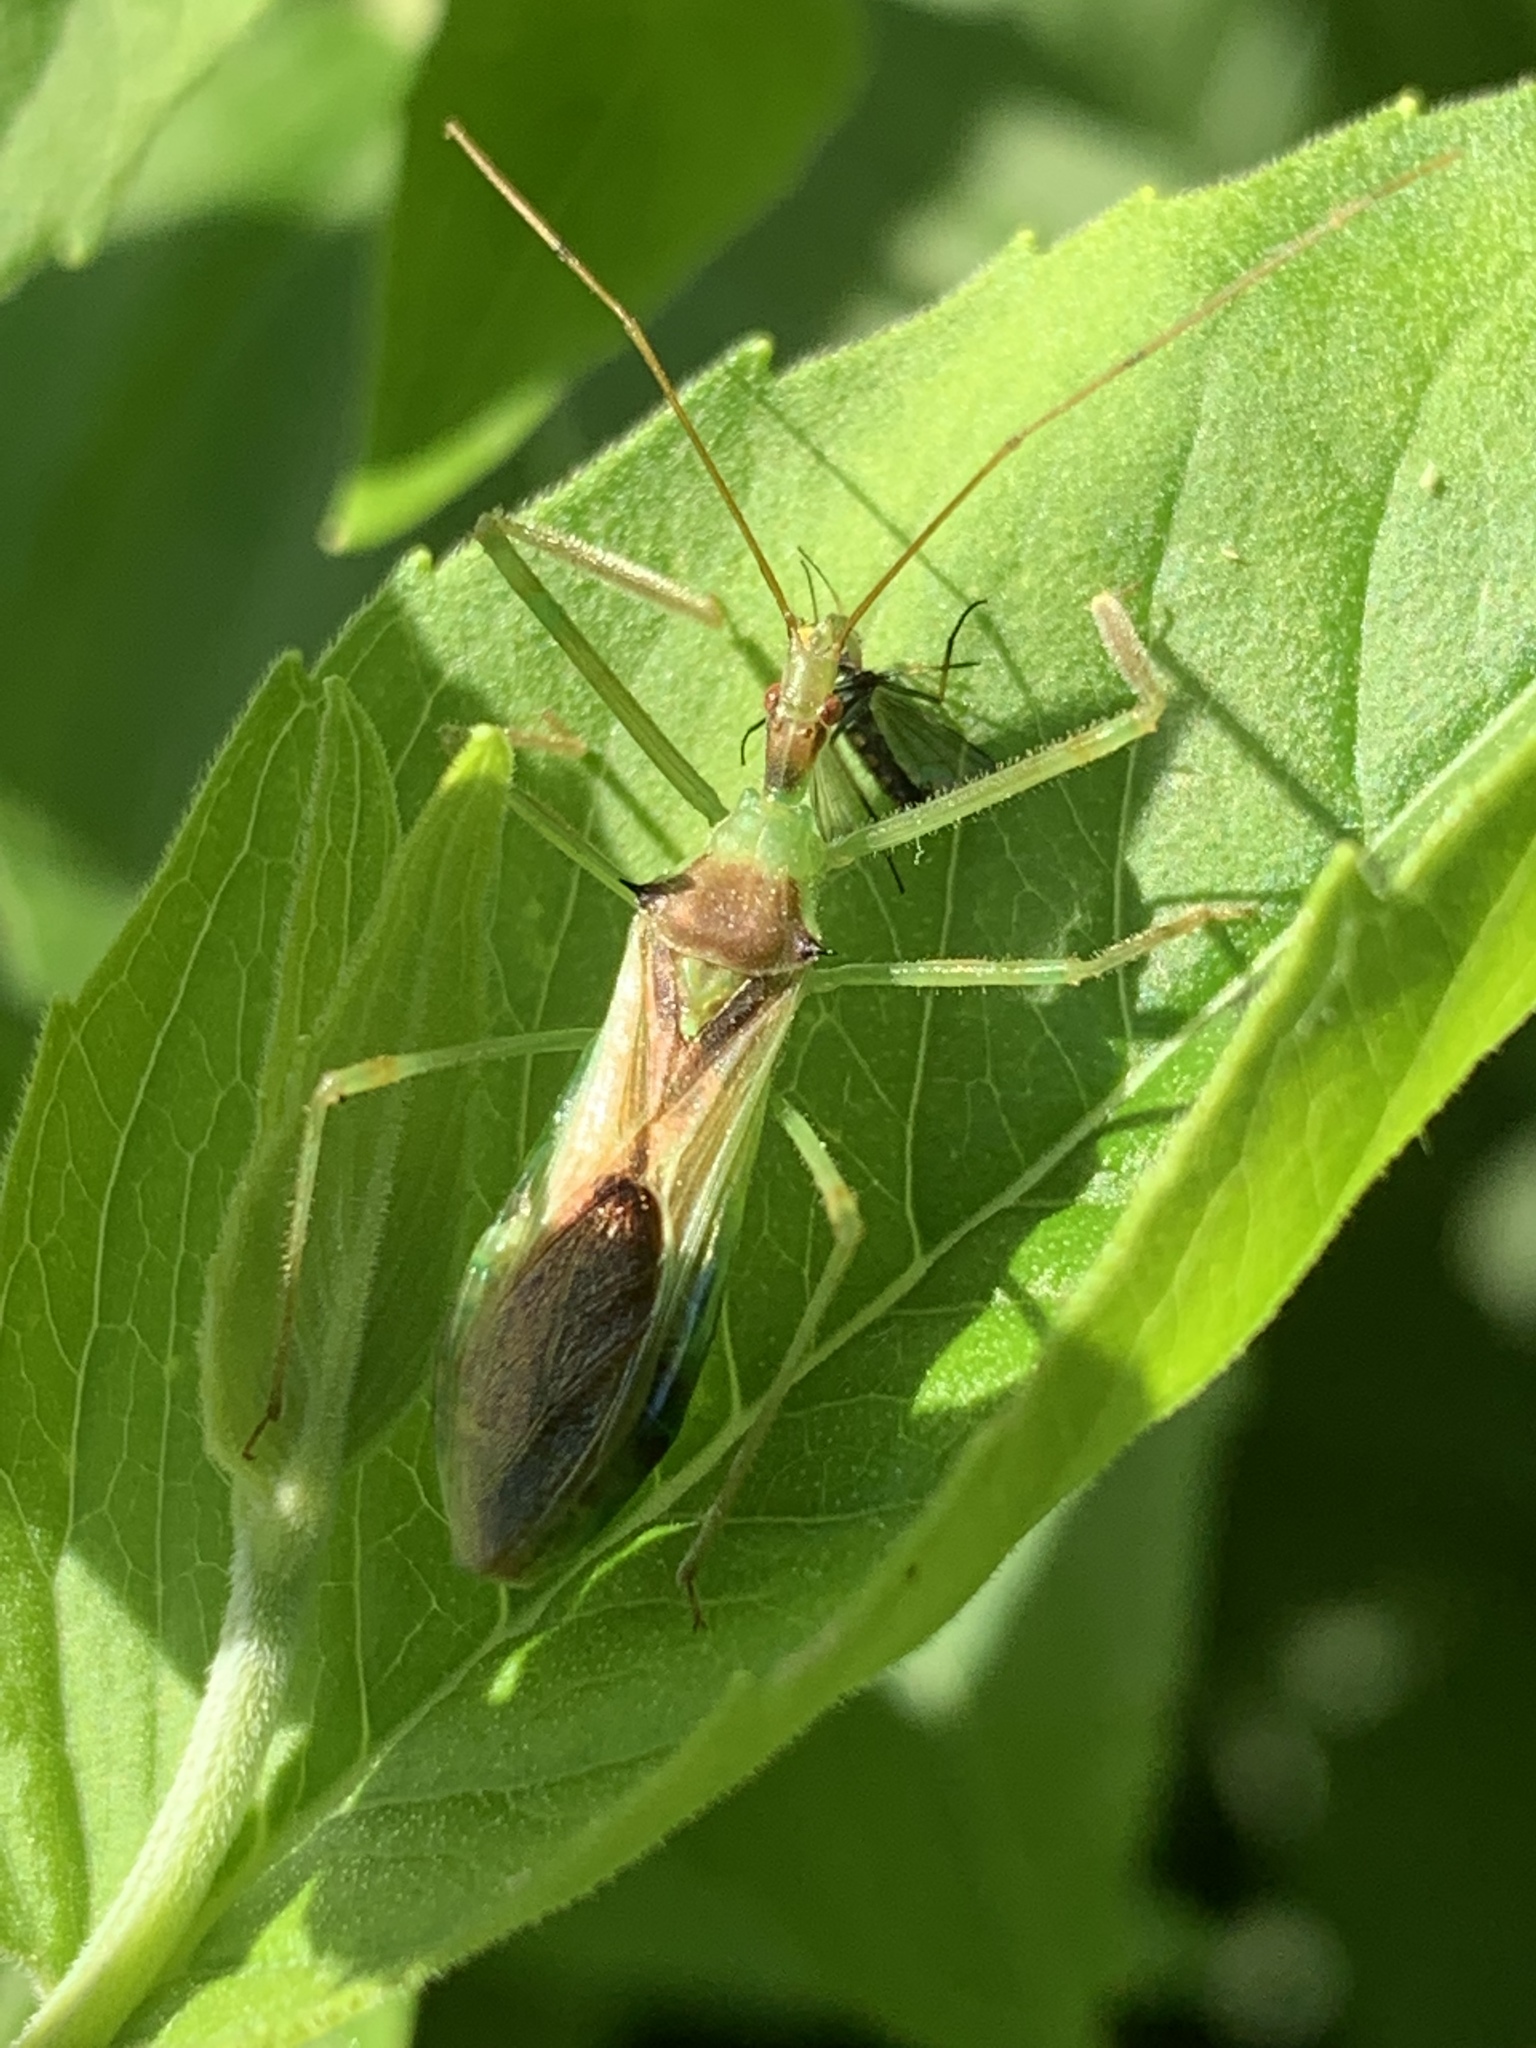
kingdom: Animalia
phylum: Arthropoda
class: Insecta
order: Hemiptera
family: Reduviidae
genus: Zelus
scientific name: Zelus luridus
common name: Pale green assassin bug
